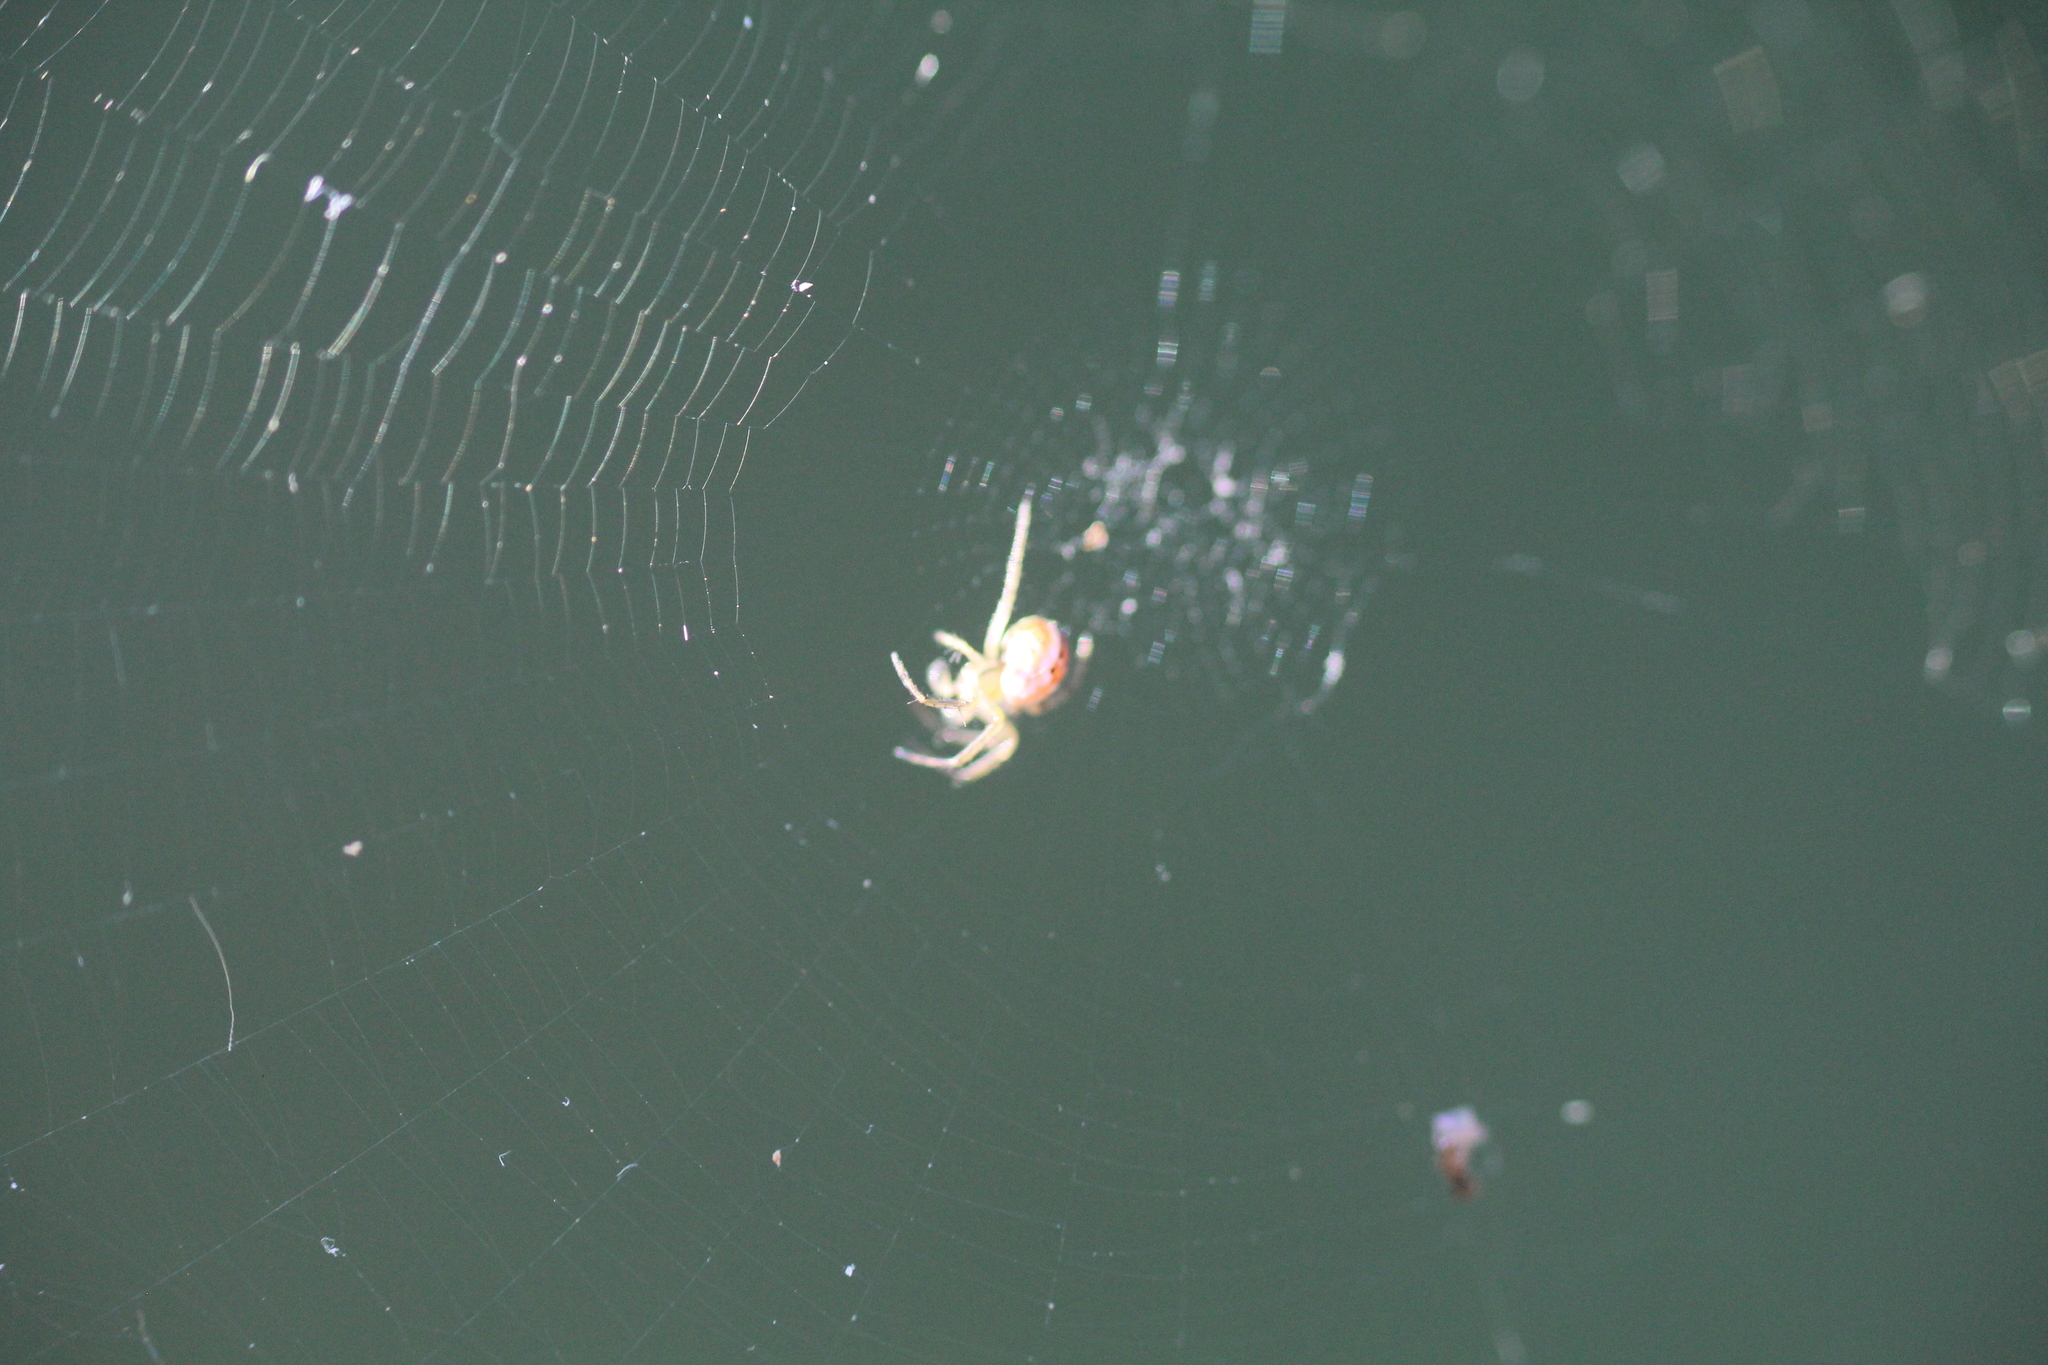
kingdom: Animalia
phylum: Arthropoda
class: Arachnida
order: Araneae
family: Araneidae
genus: Mangora
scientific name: Mangora acalypha
